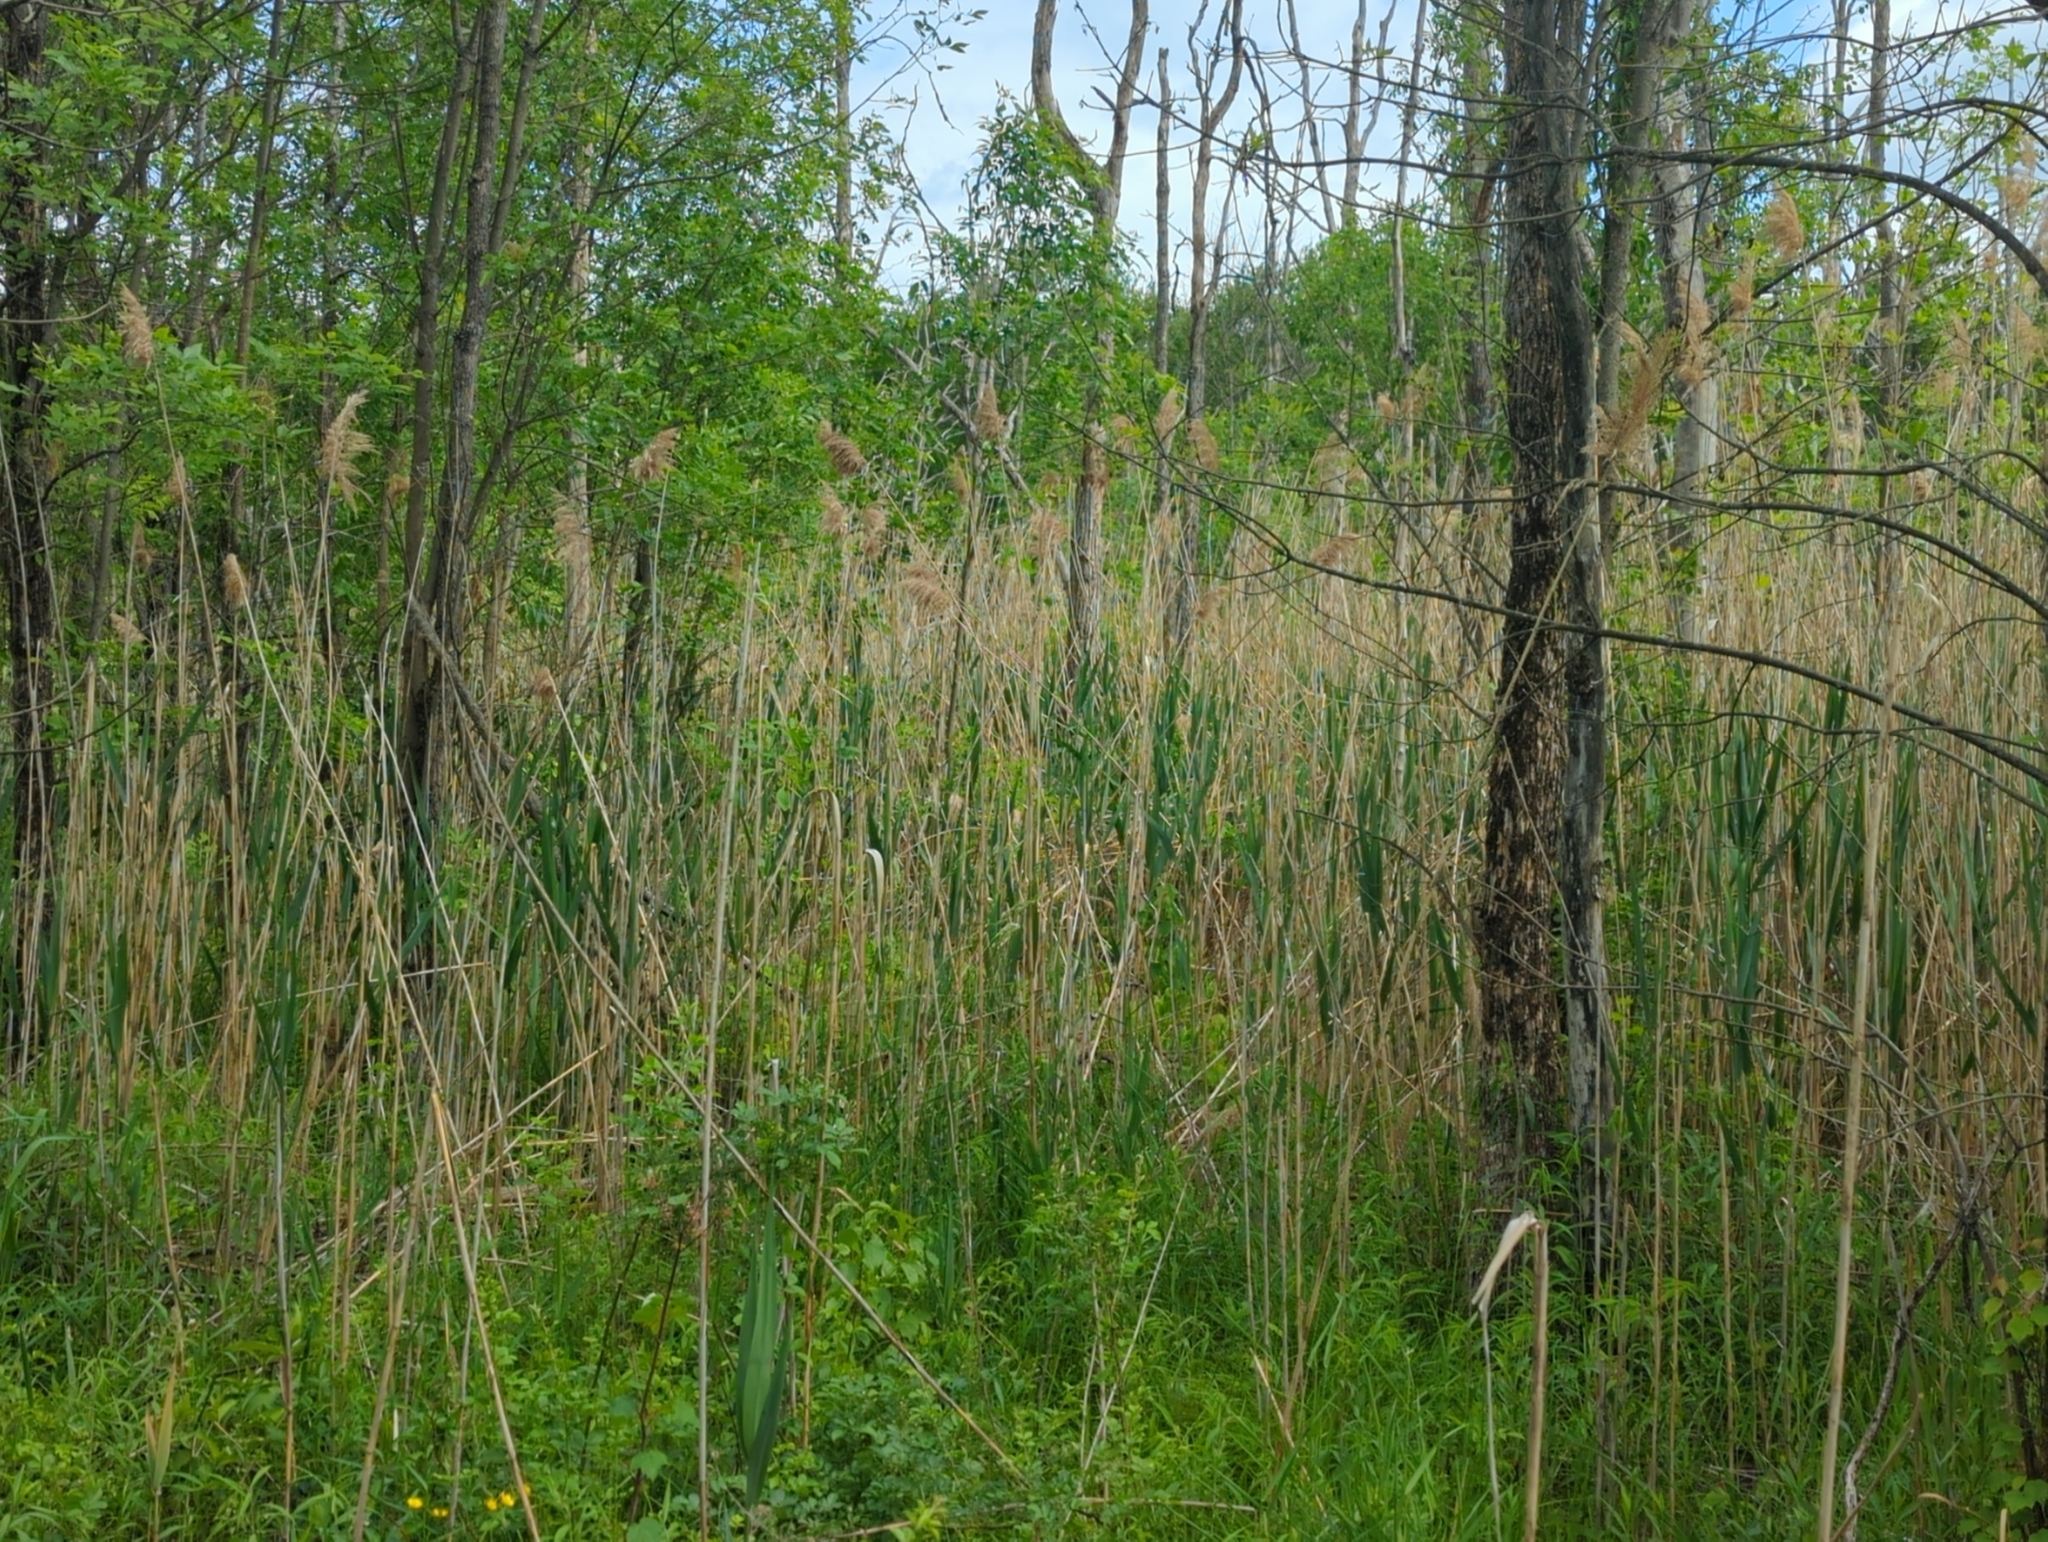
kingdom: Plantae
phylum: Tracheophyta
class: Liliopsida
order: Poales
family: Poaceae
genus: Phragmites
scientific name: Phragmites australis
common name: Common reed
